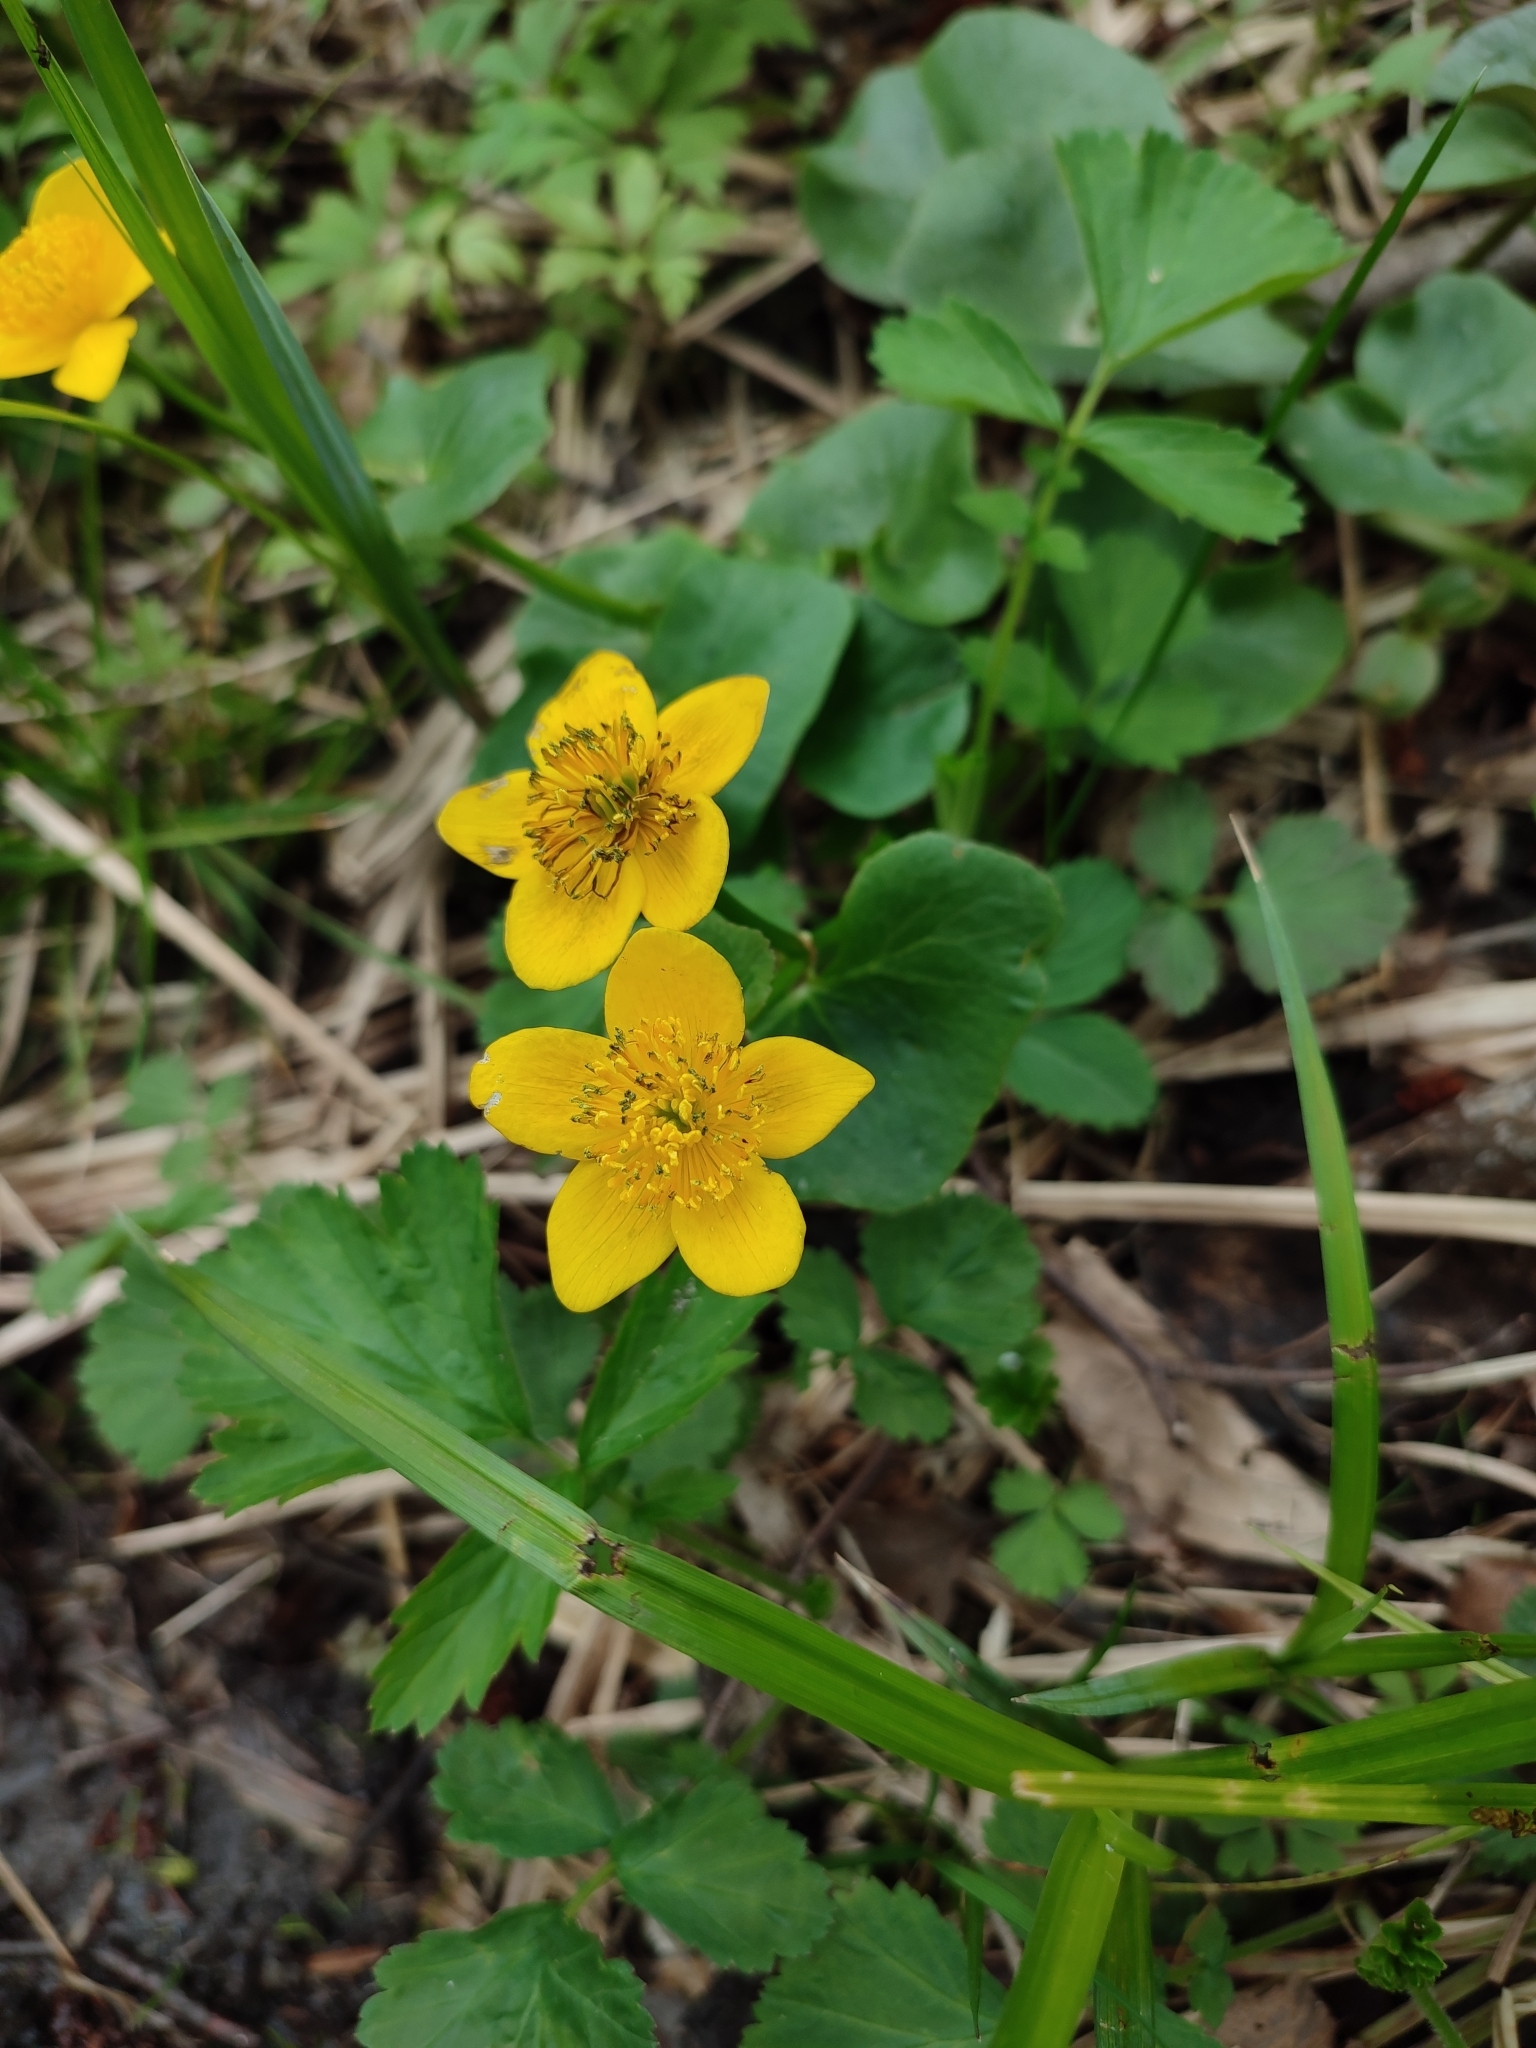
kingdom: Plantae
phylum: Tracheophyta
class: Magnoliopsida
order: Ranunculales
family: Ranunculaceae
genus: Caltha
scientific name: Caltha palustris
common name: Marsh marigold
